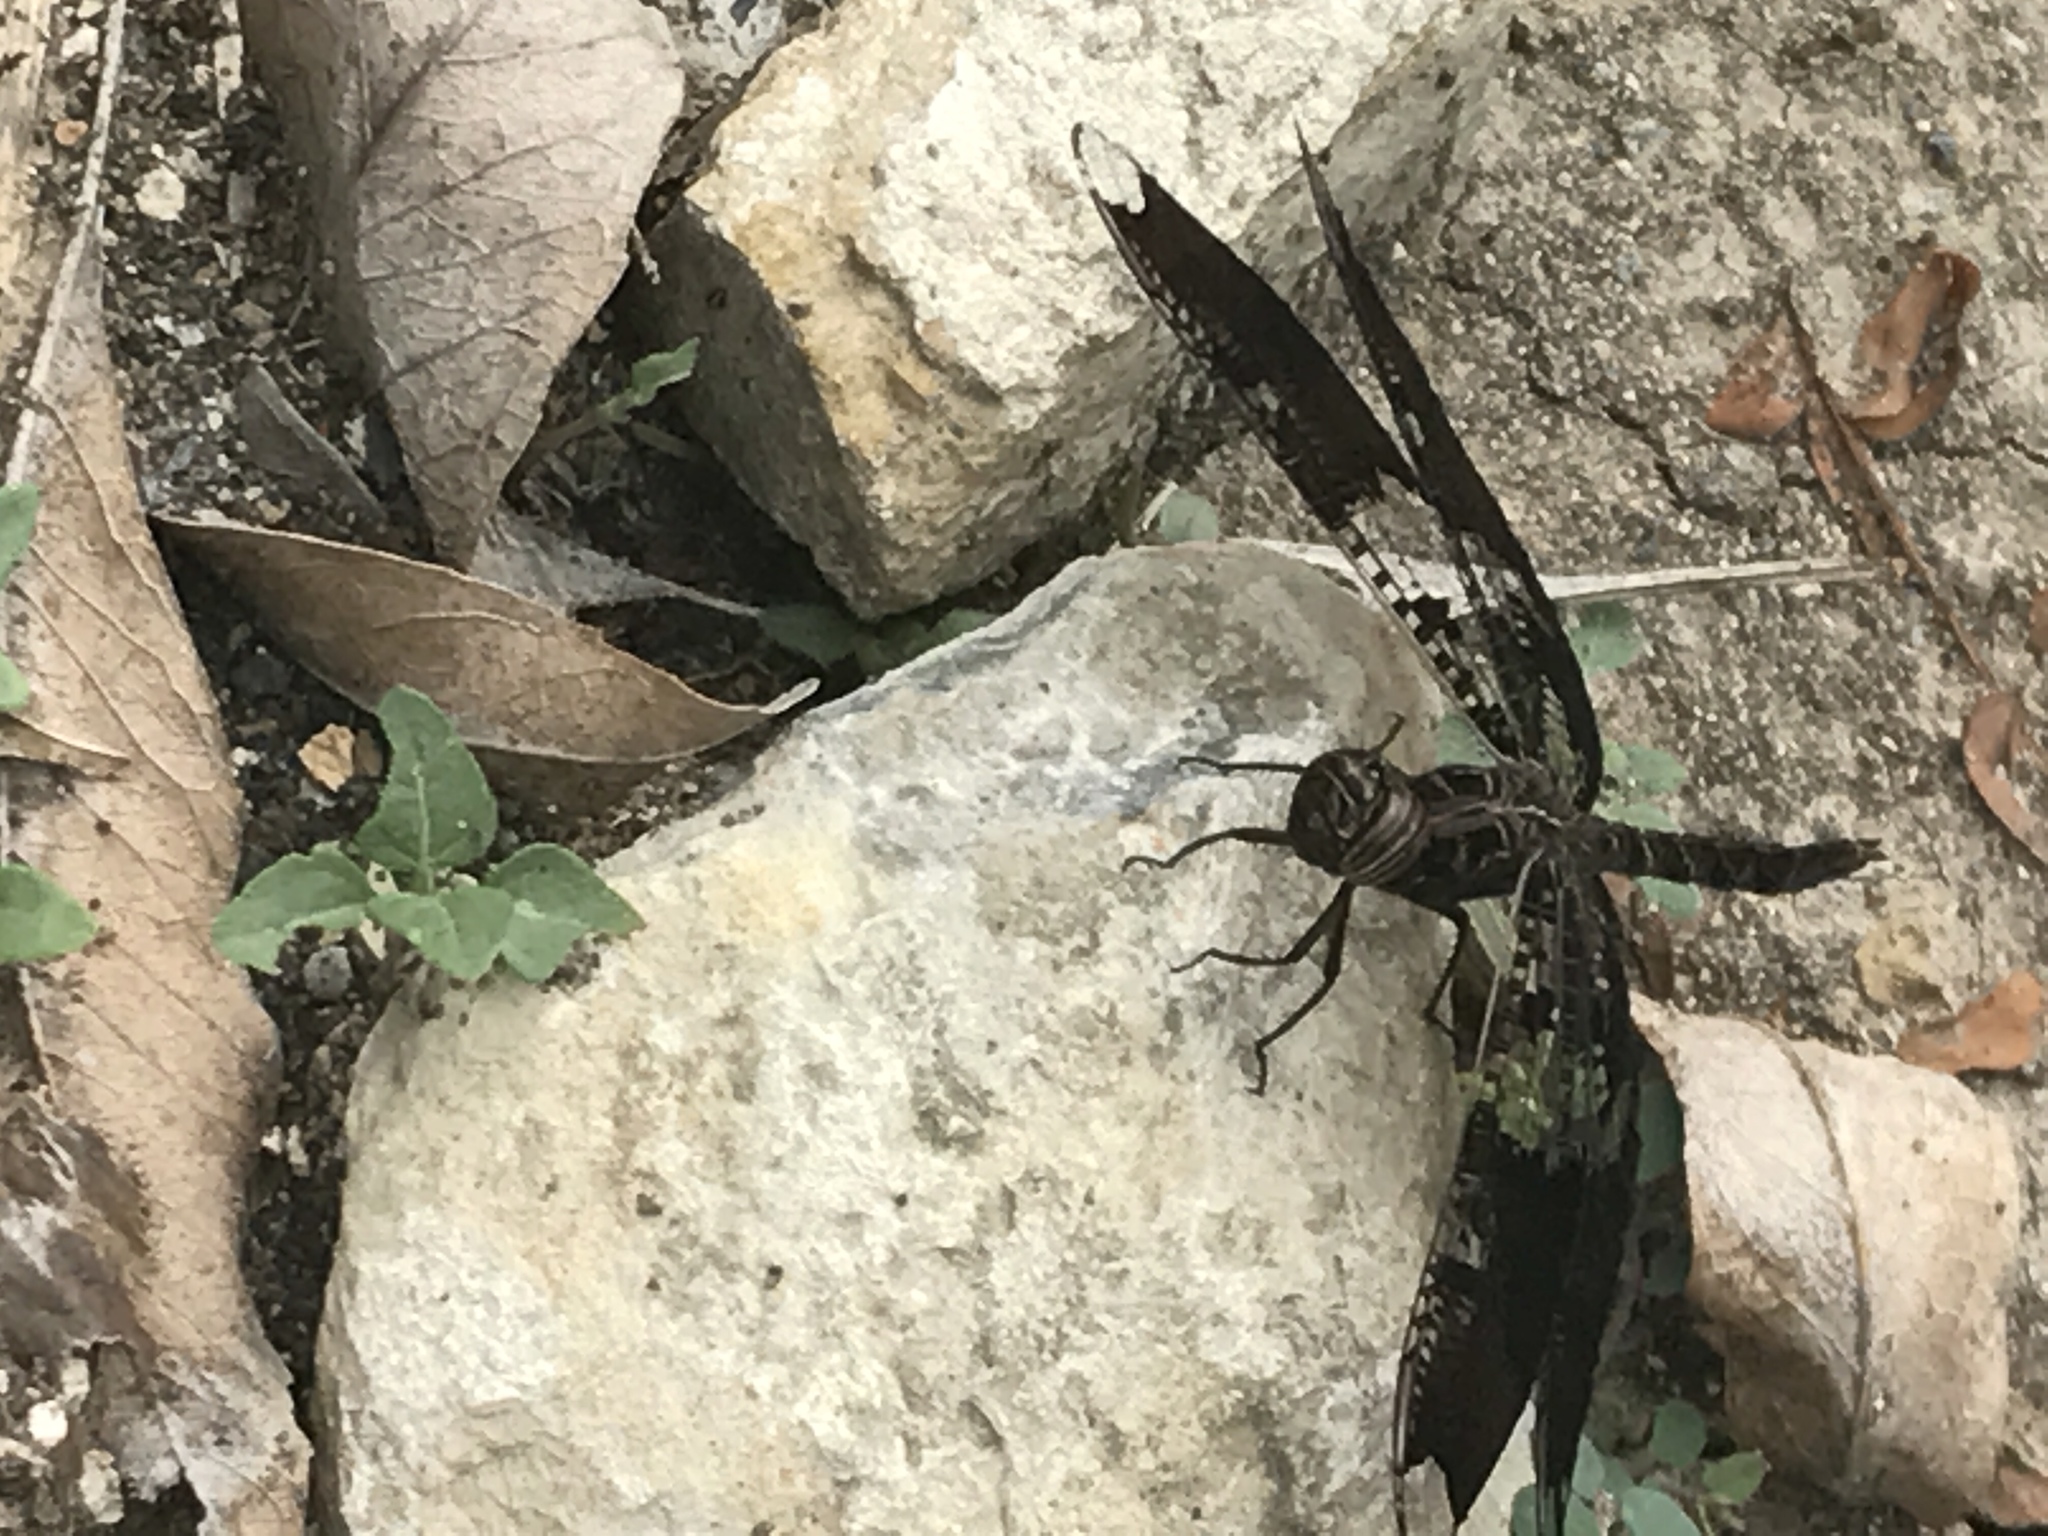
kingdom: Animalia
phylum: Arthropoda
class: Insecta
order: Odonata
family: Libellulidae
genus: Pseudoleon
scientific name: Pseudoleon superbus
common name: Filigree skimmer
